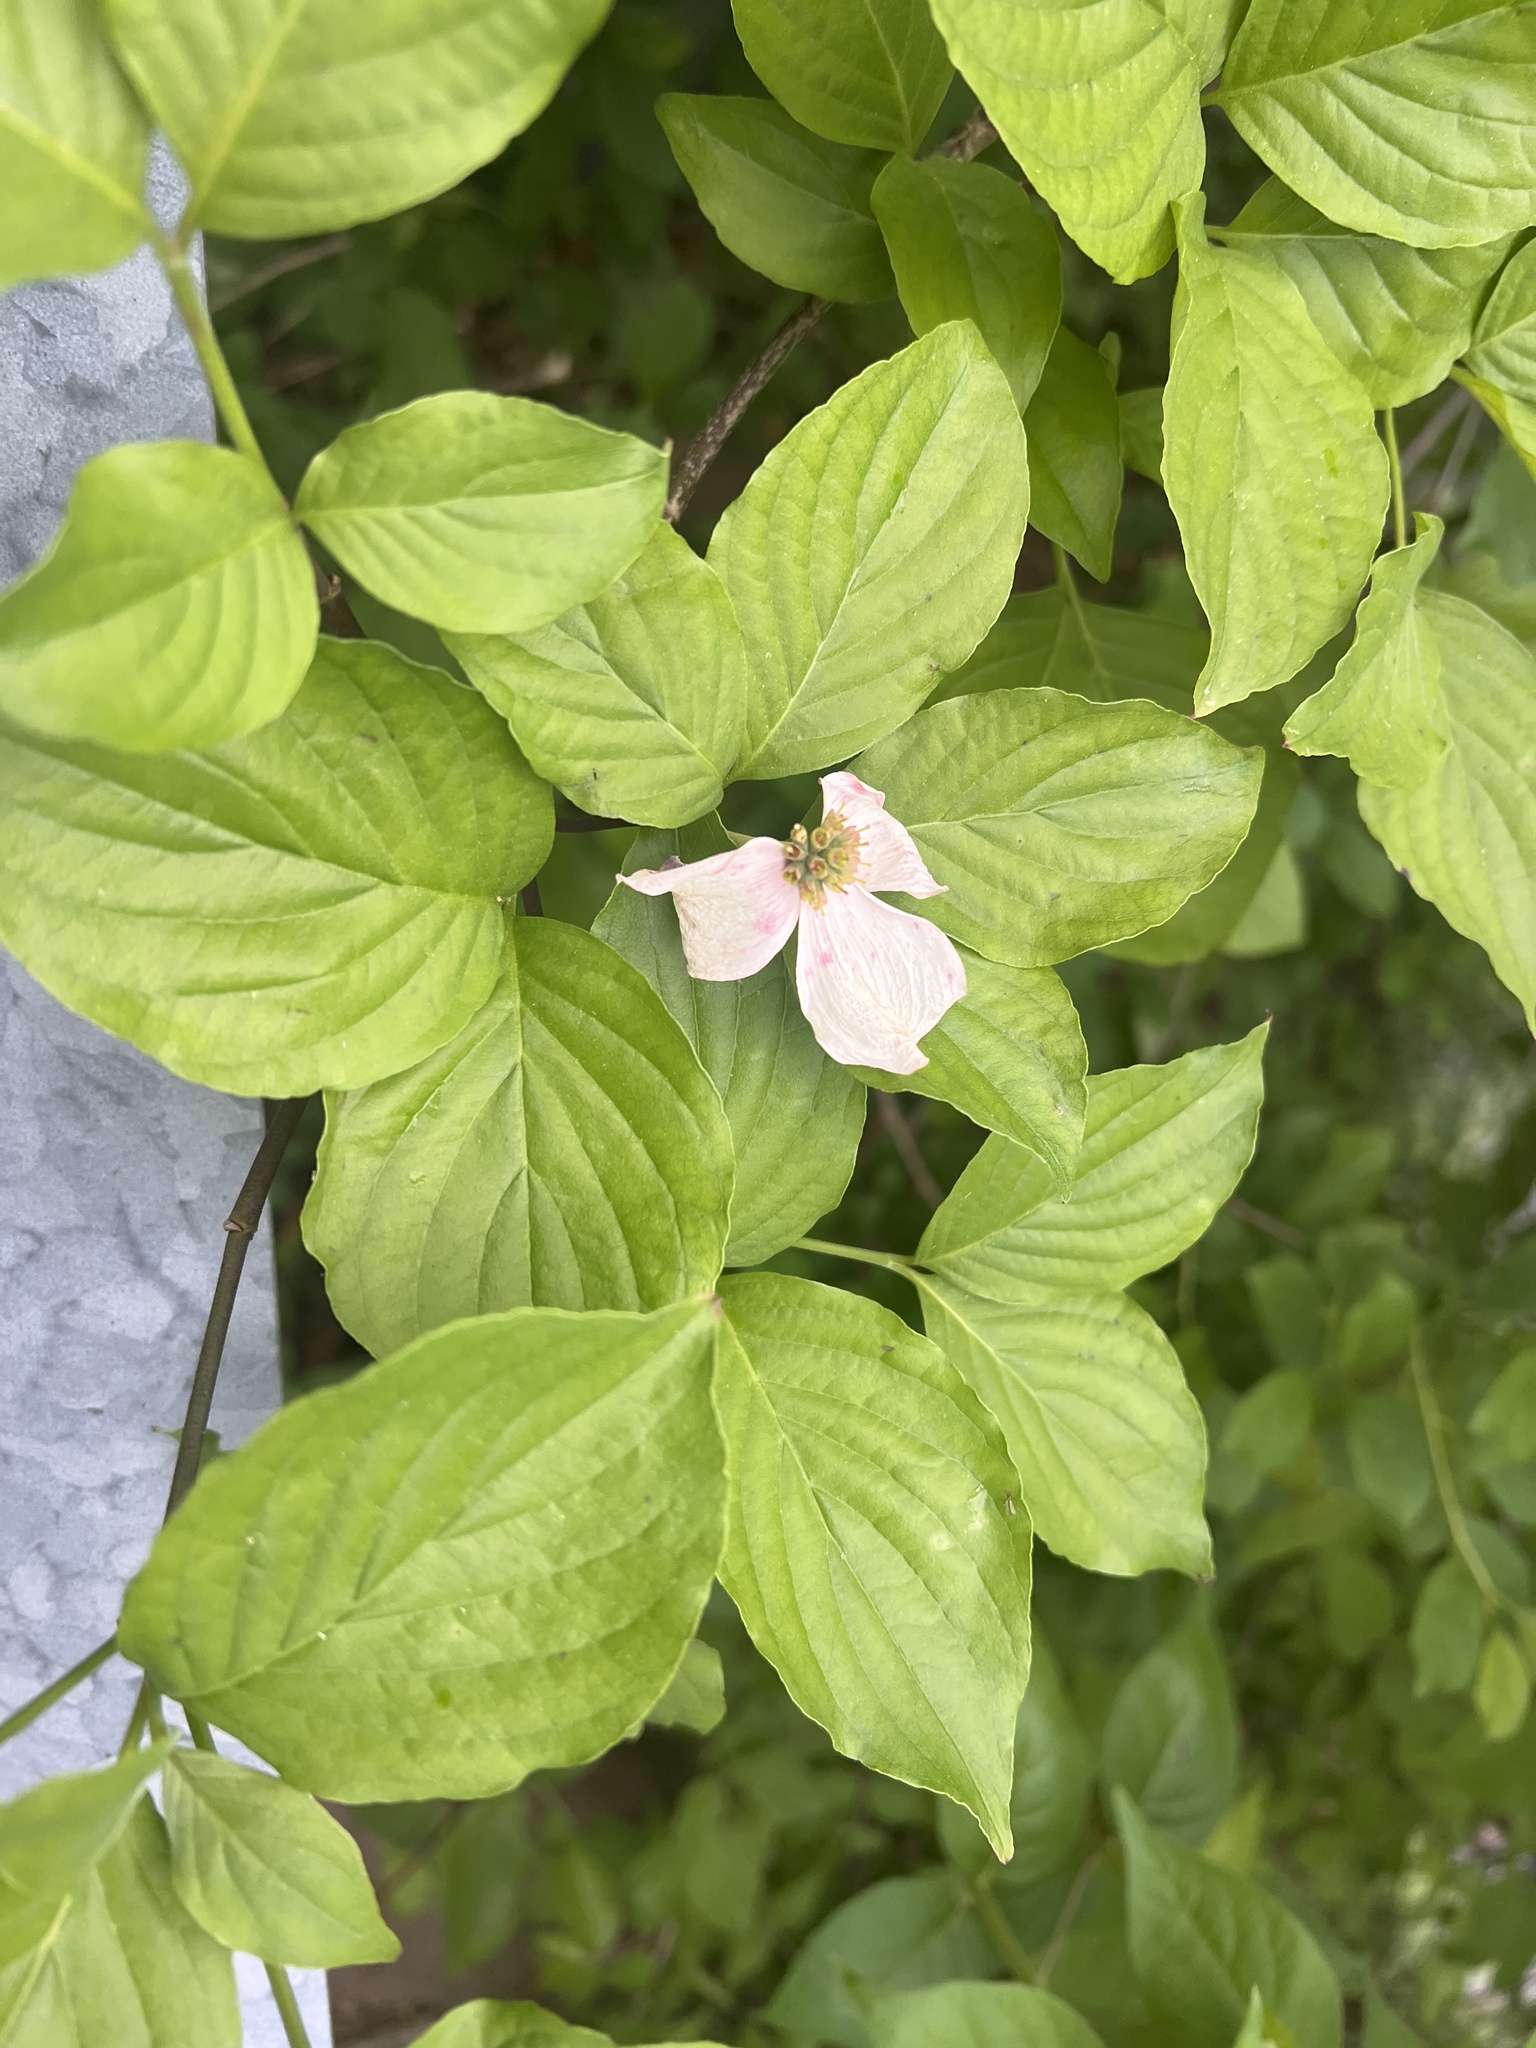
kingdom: Plantae
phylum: Tracheophyta
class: Magnoliopsida
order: Cornales
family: Cornaceae
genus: Cornus
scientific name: Cornus florida
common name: Flowering dogwood
